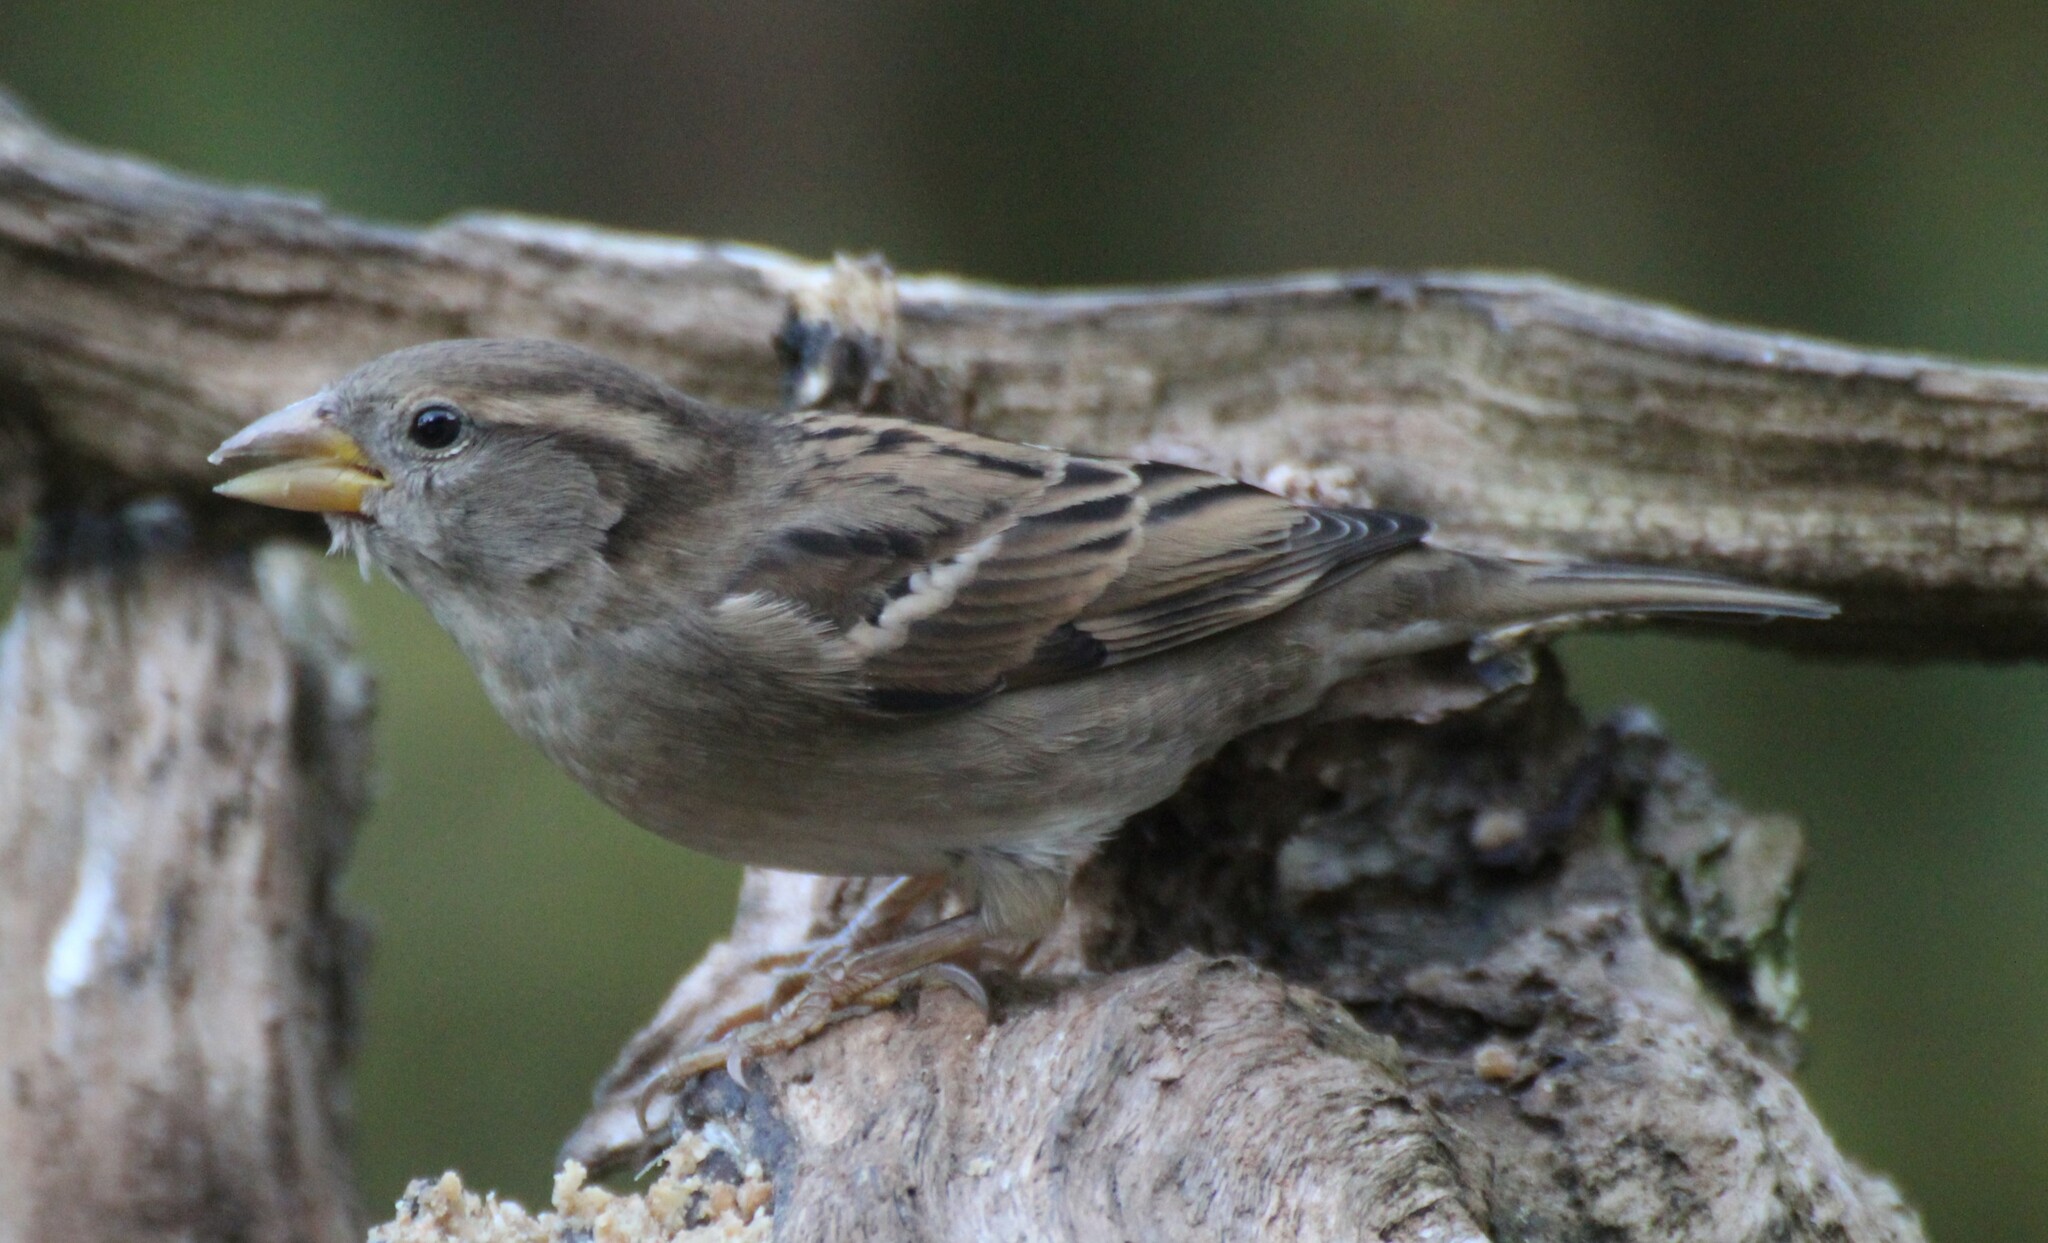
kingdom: Animalia
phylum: Chordata
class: Aves
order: Passeriformes
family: Passeridae
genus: Passer
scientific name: Passer domesticus
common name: House sparrow
